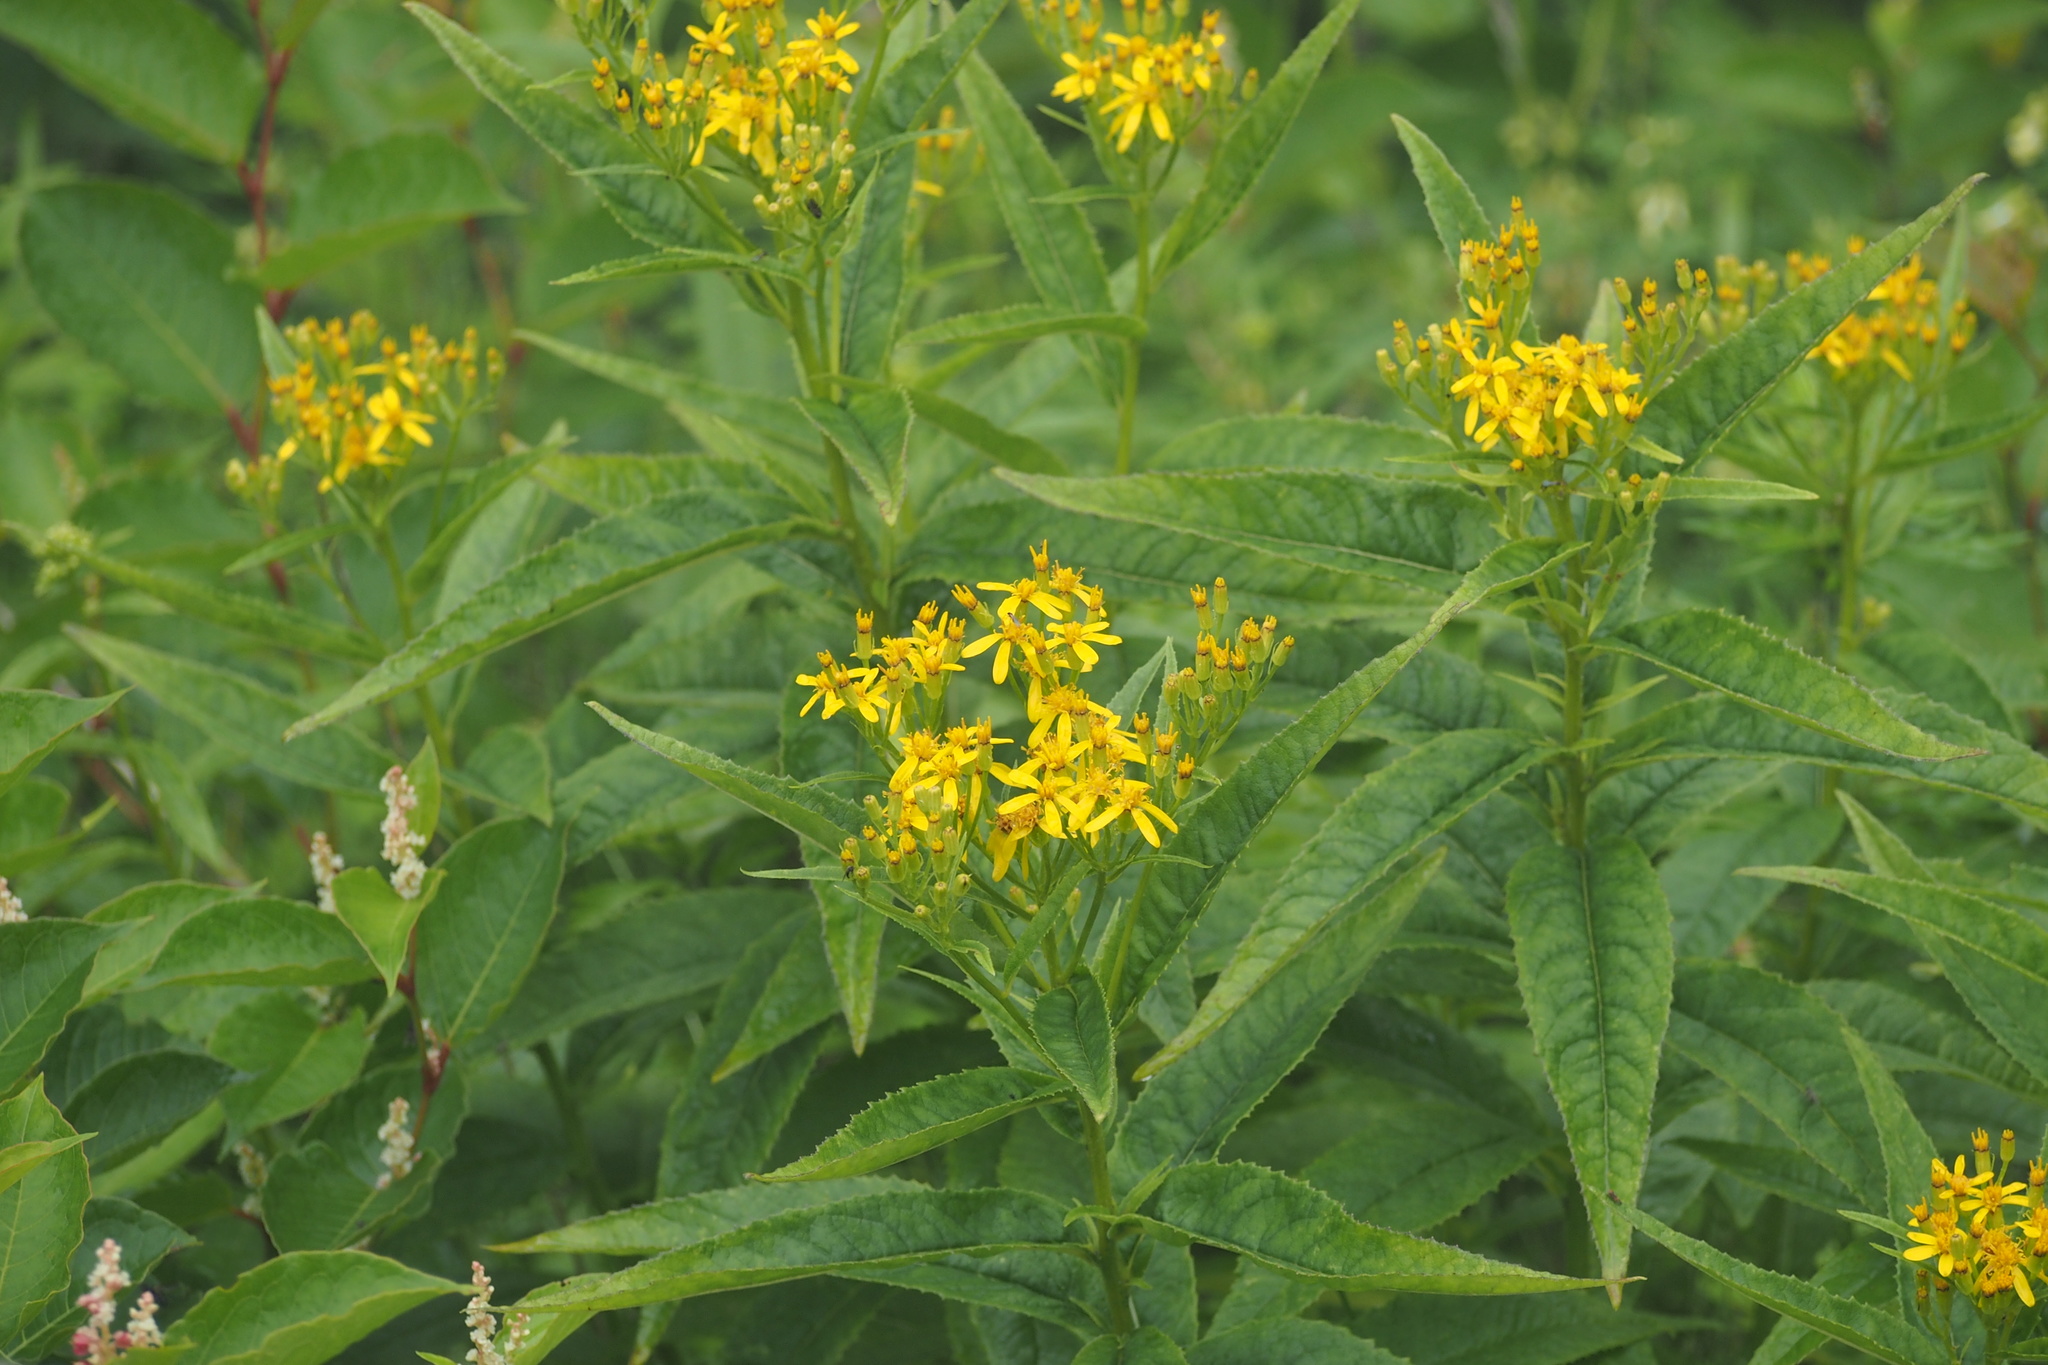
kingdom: Plantae
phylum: Tracheophyta
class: Magnoliopsida
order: Asterales
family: Asteraceae
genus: Senecio
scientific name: Senecio nemorensis
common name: Alpine ragwort
